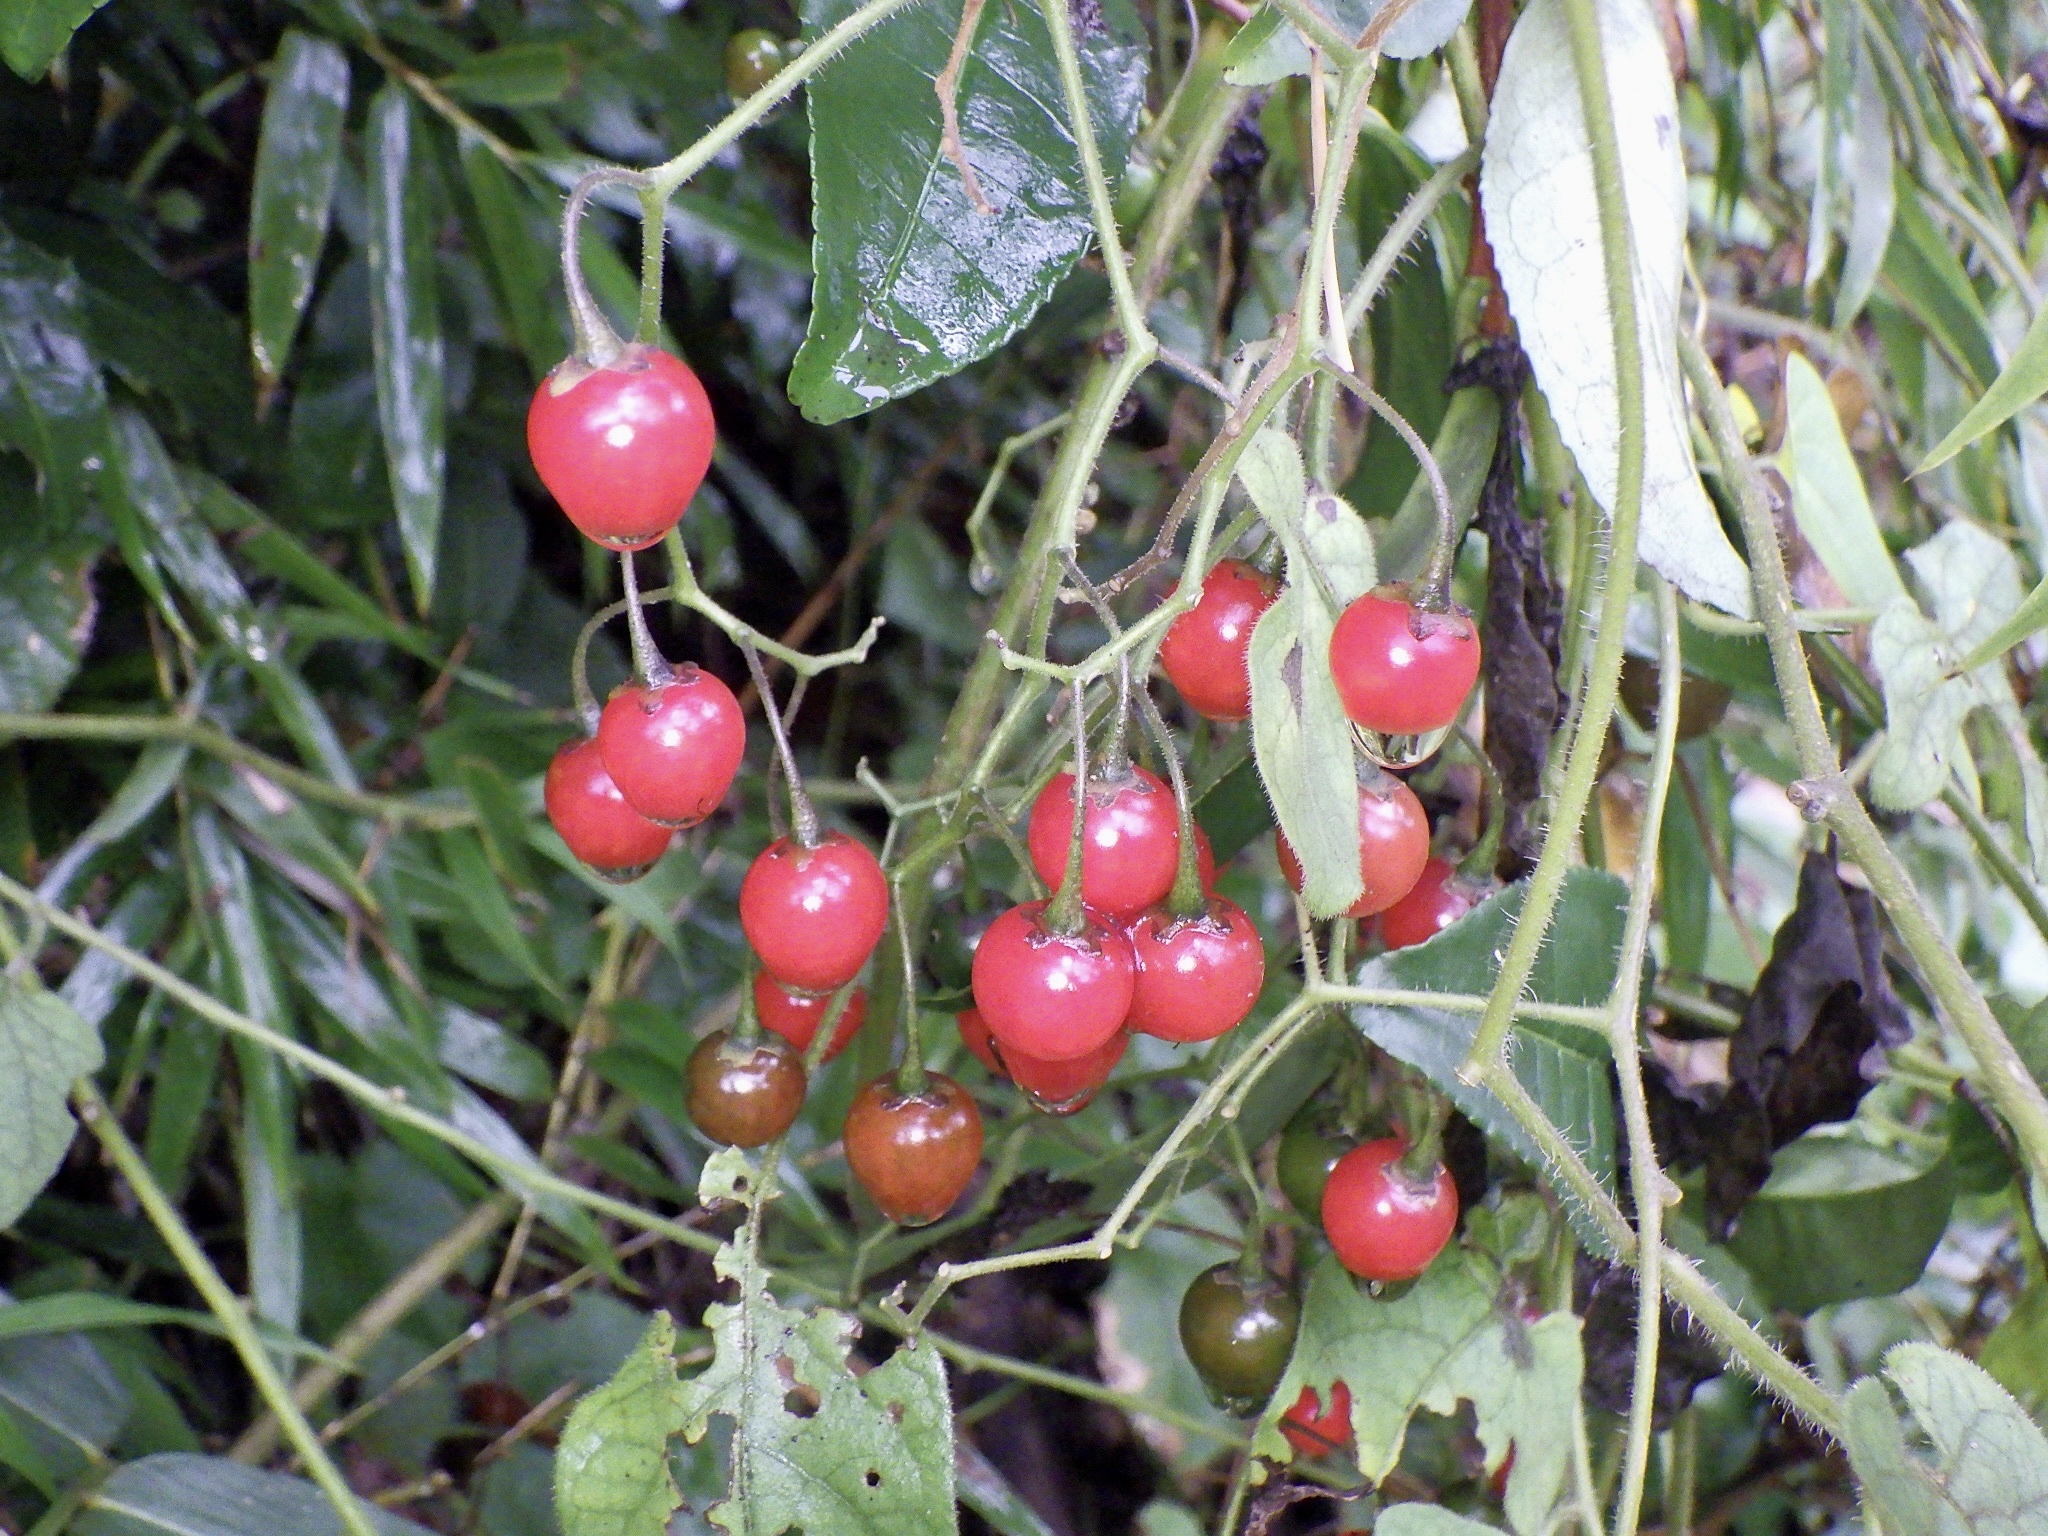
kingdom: Plantae
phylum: Tracheophyta
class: Magnoliopsida
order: Solanales
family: Solanaceae
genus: Solanum
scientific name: Solanum lyratum
